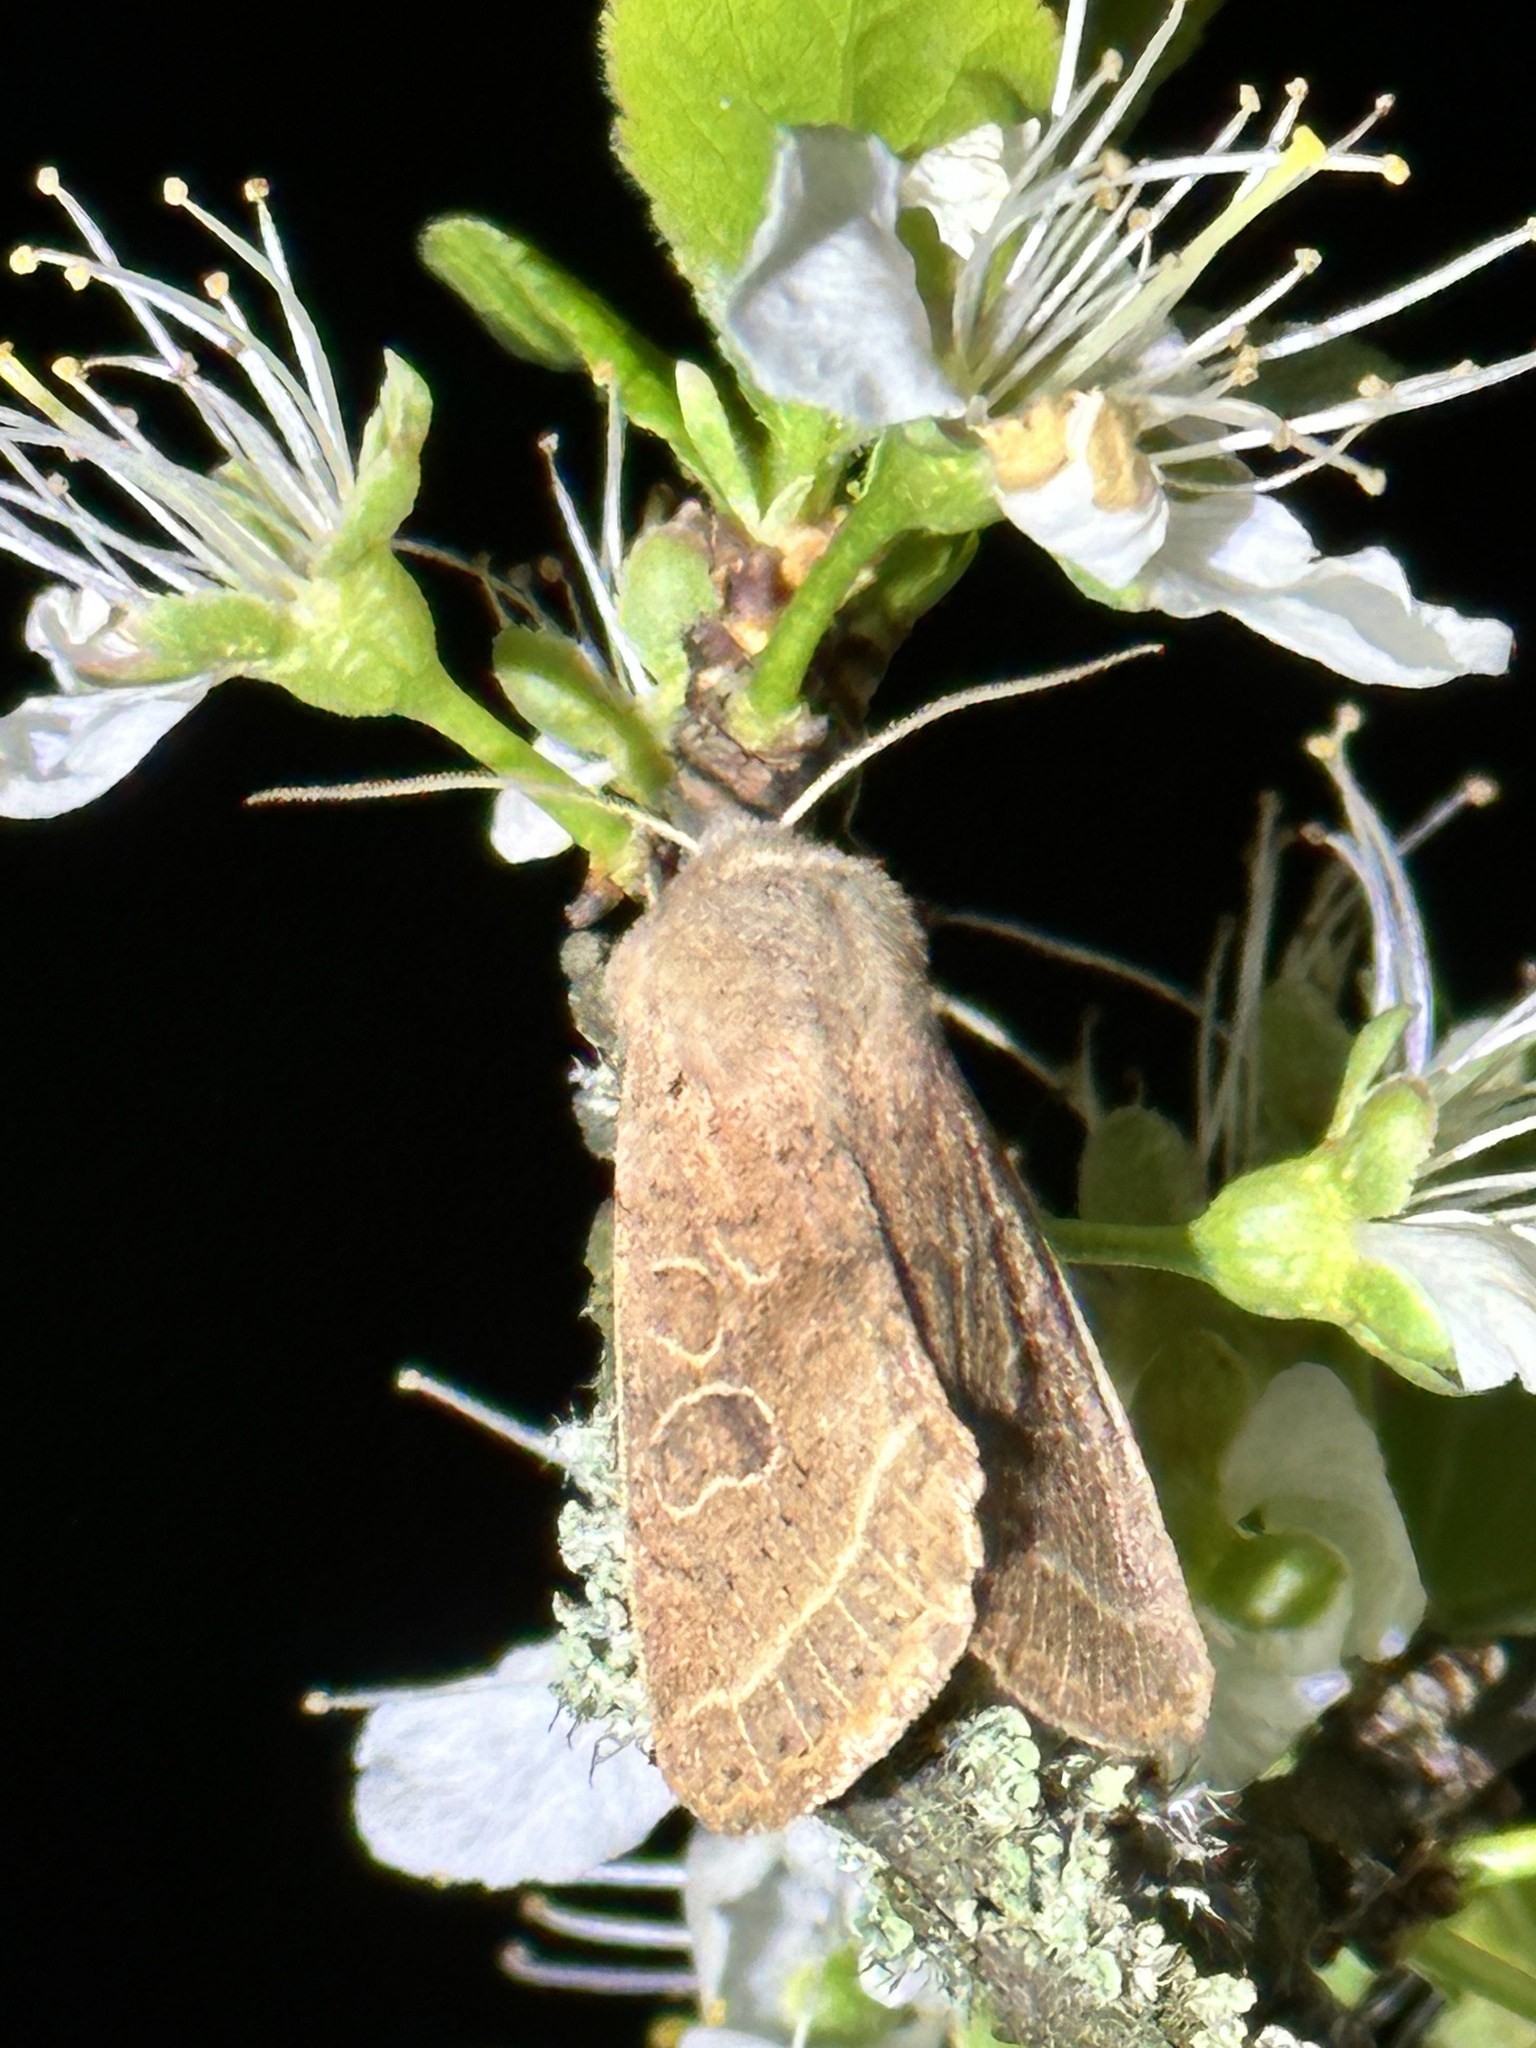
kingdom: Animalia
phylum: Arthropoda
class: Insecta
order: Lepidoptera
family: Noctuidae
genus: Orthosia
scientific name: Orthosia cerasi
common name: Common quaker
